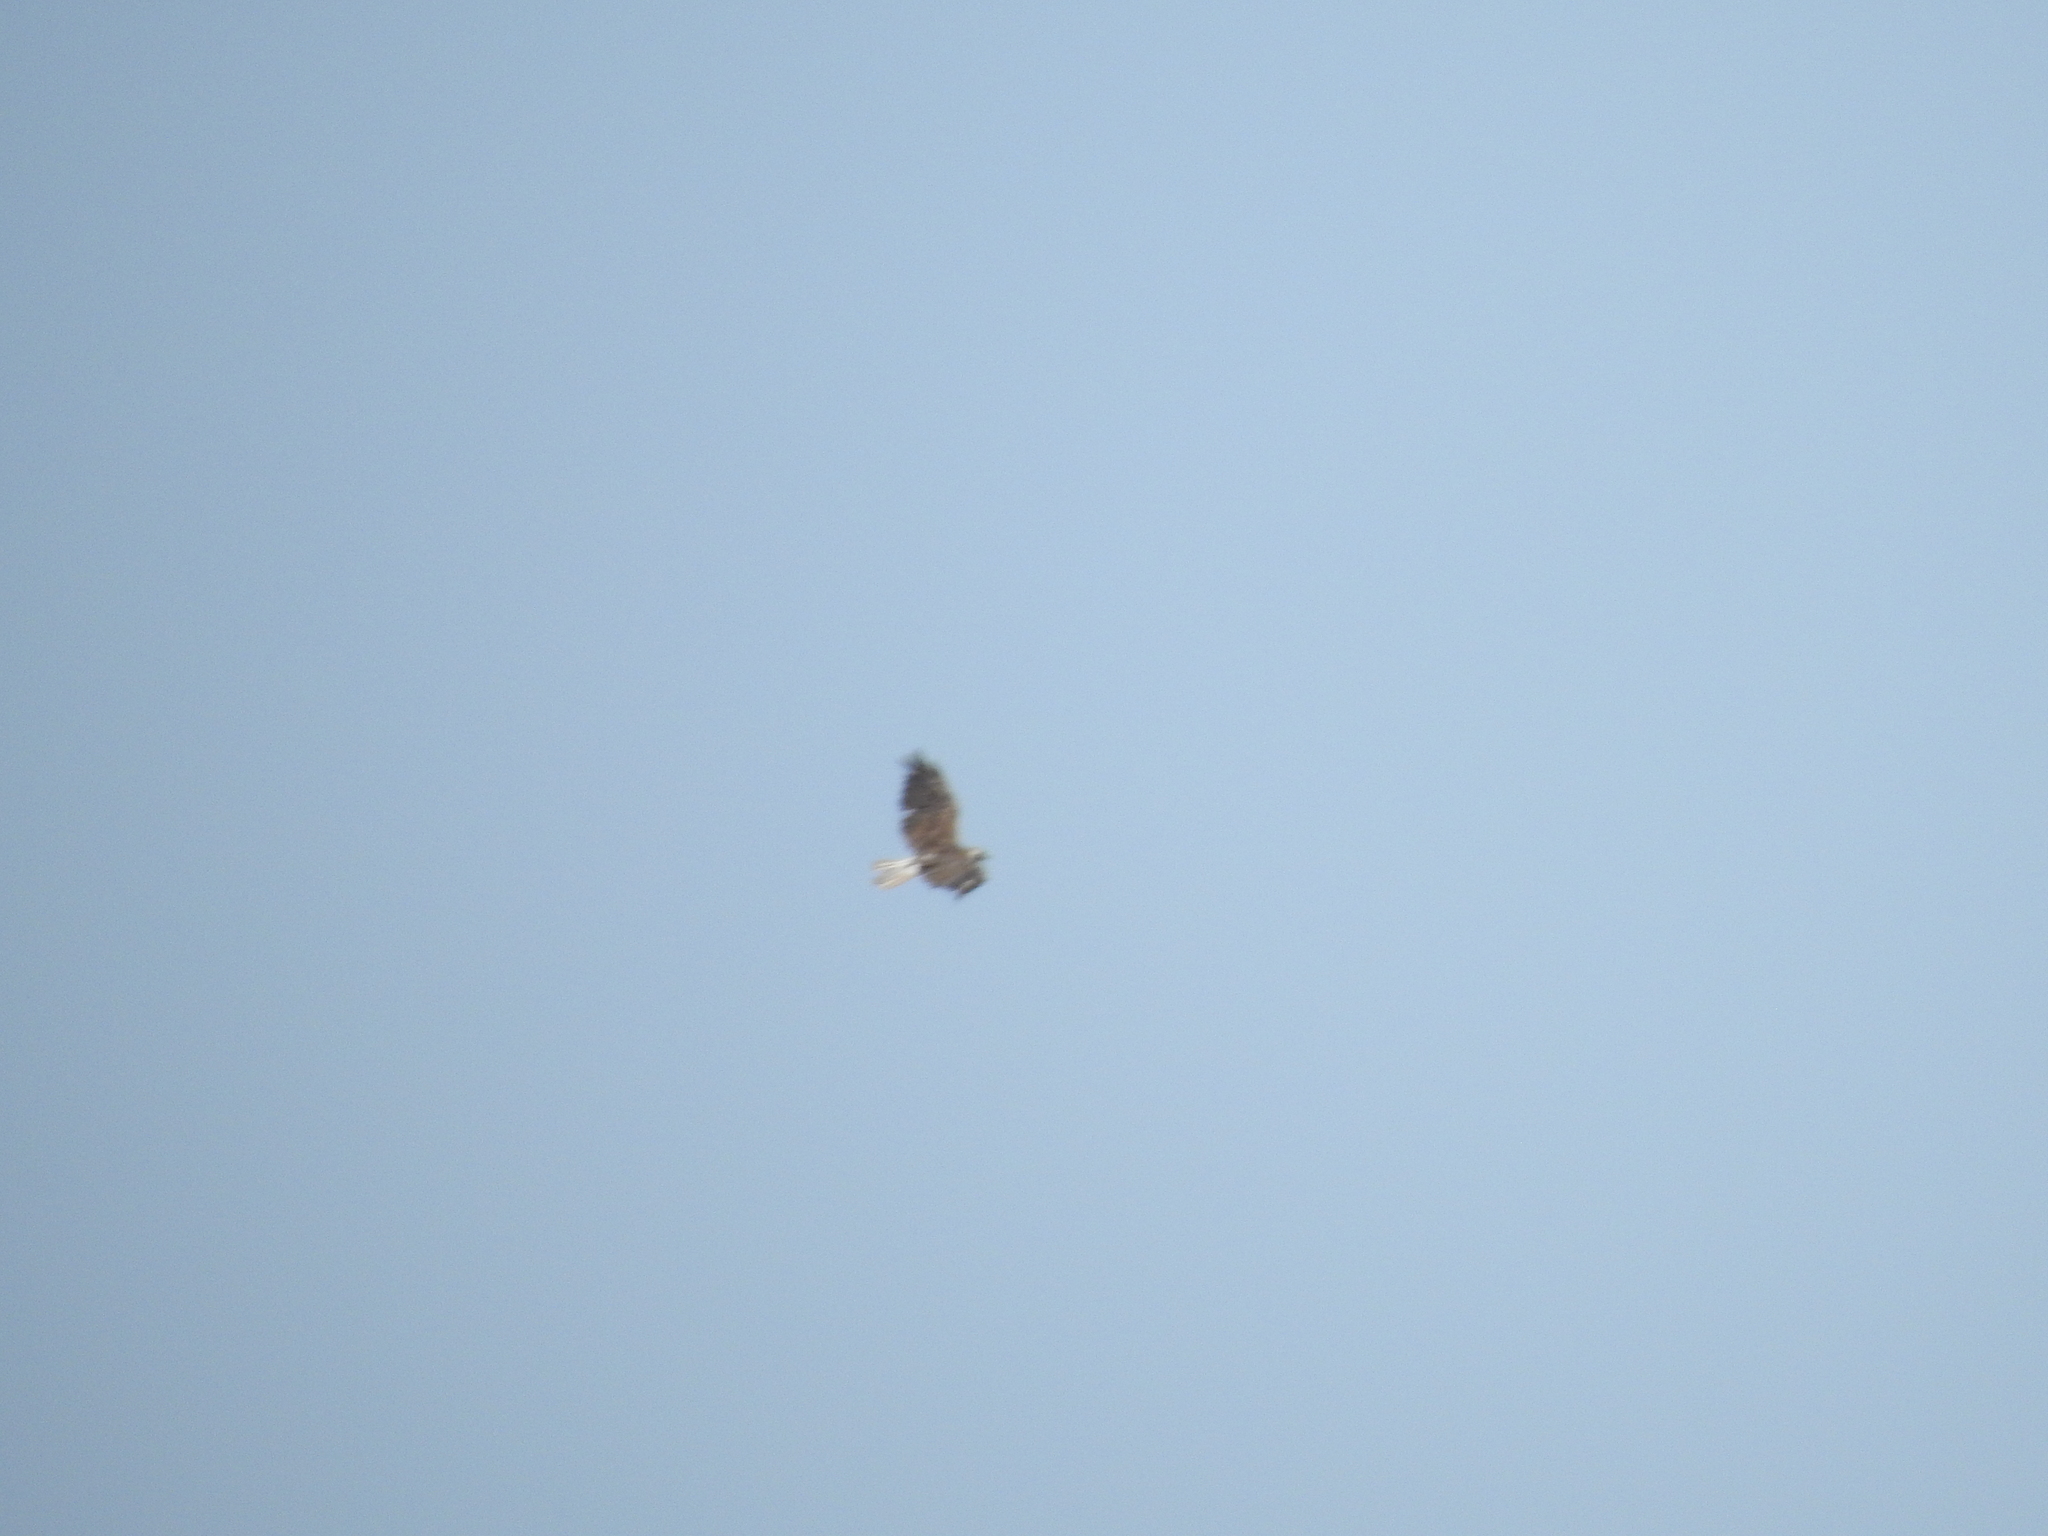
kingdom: Animalia
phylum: Chordata
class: Aves
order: Accipitriformes
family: Accipitridae
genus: Buteo
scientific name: Buteo albicaudatus
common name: White-tailed hawk
